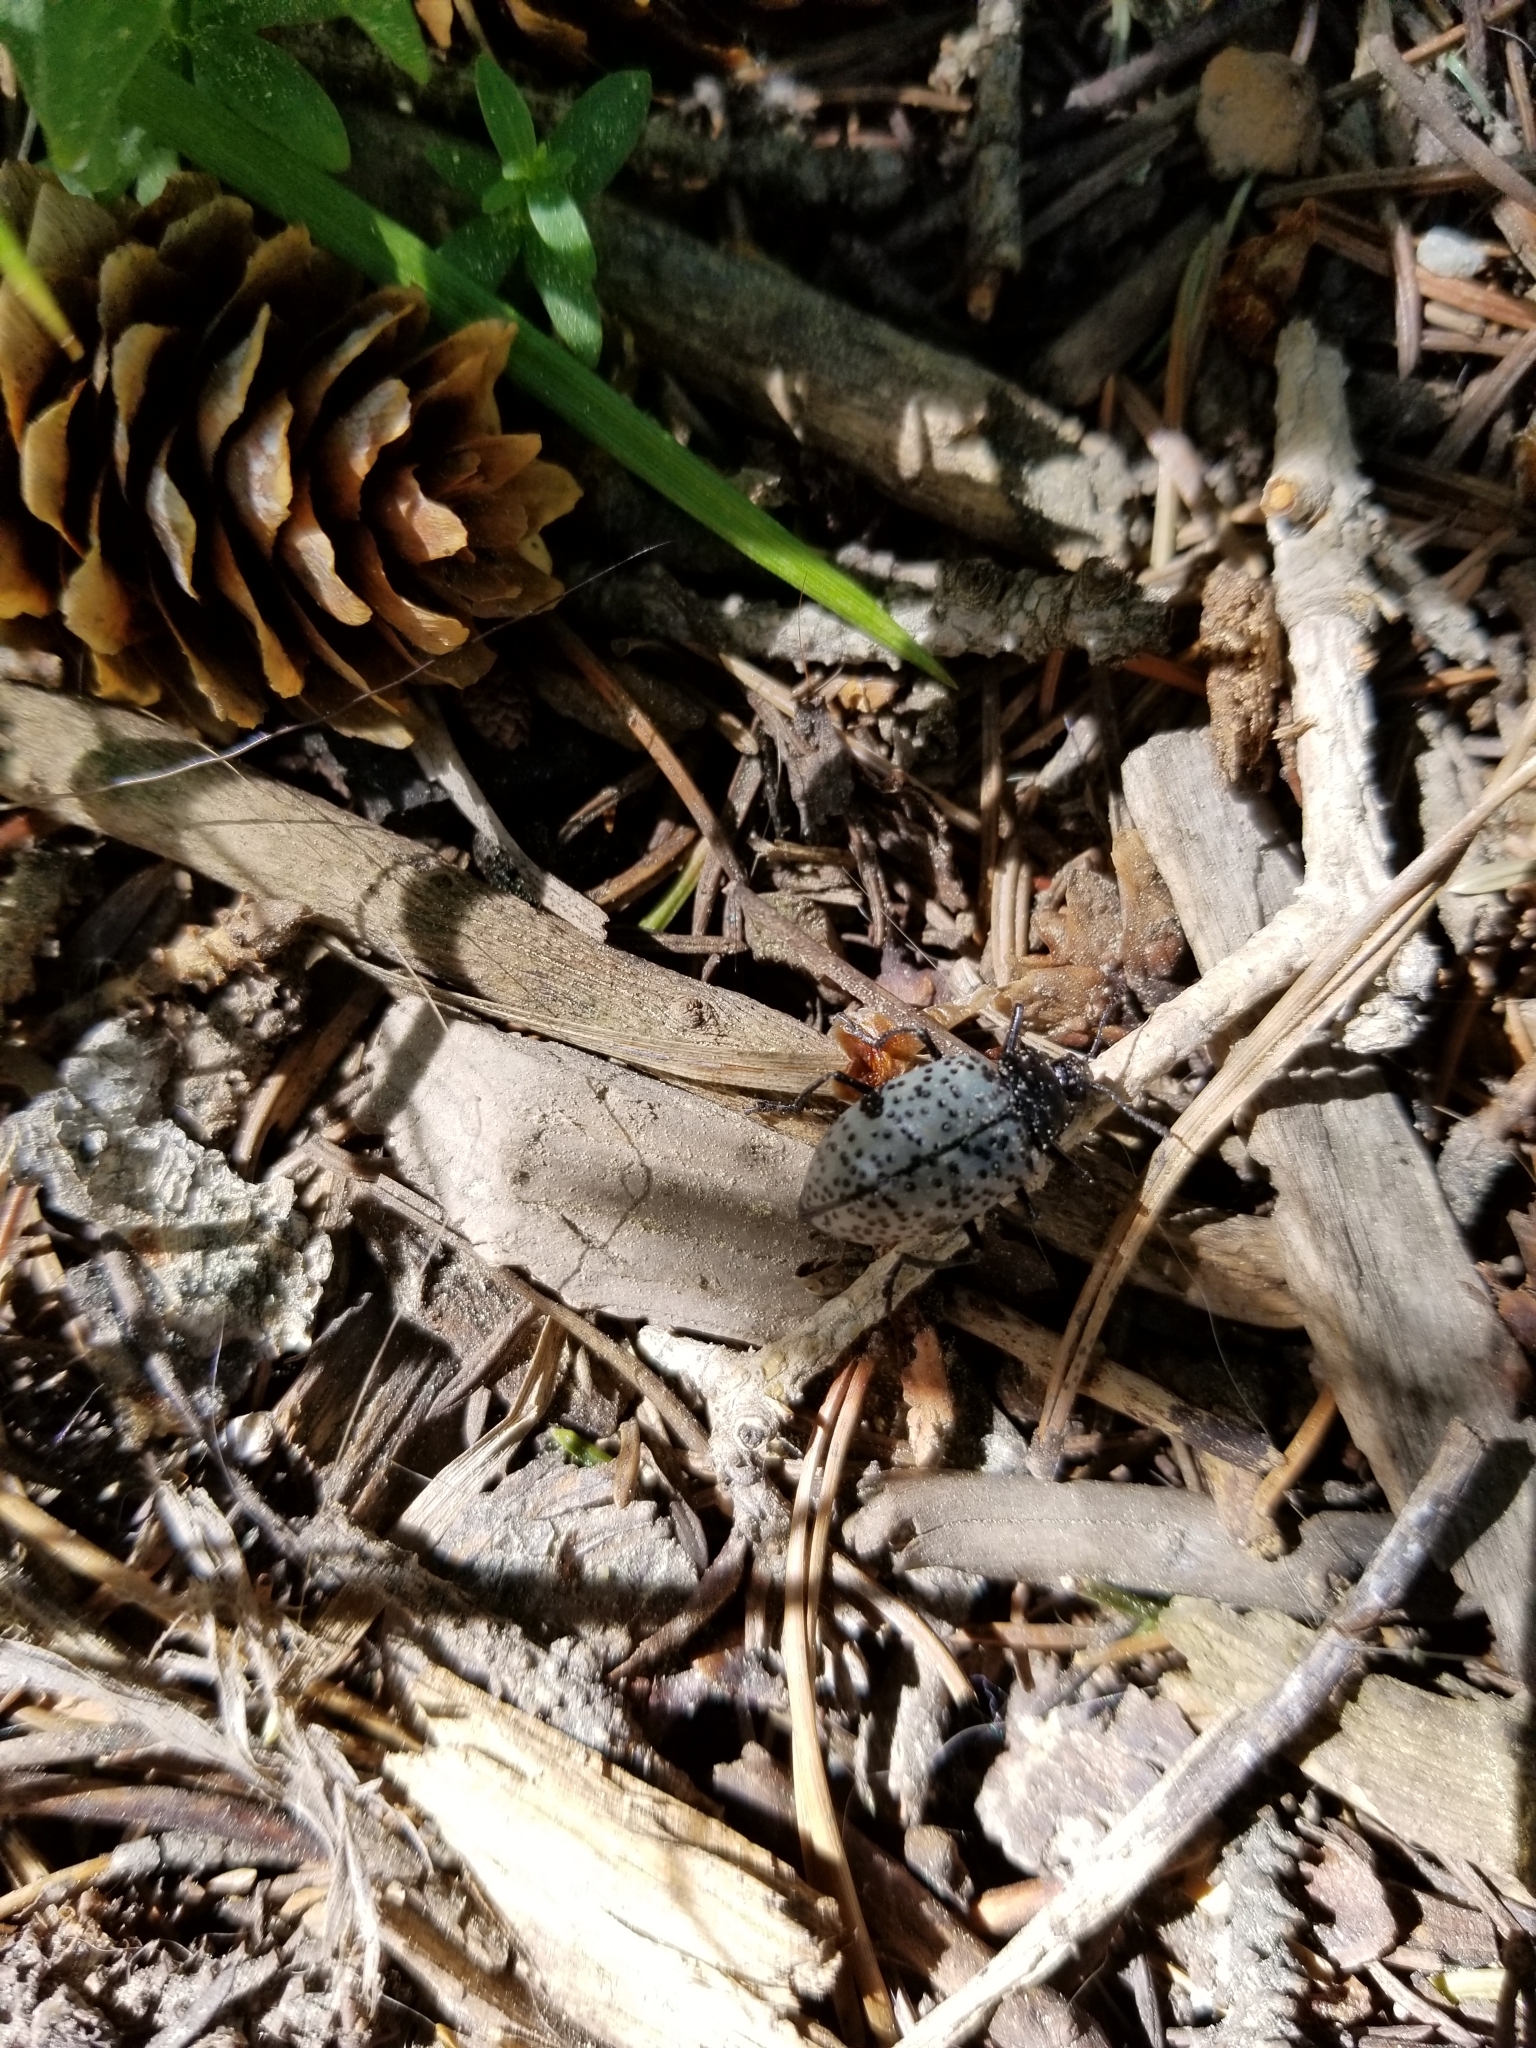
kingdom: Animalia
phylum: Arthropoda
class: Insecta
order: Coleoptera
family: Erotylidae
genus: Gibbifer
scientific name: Gibbifer californicus
